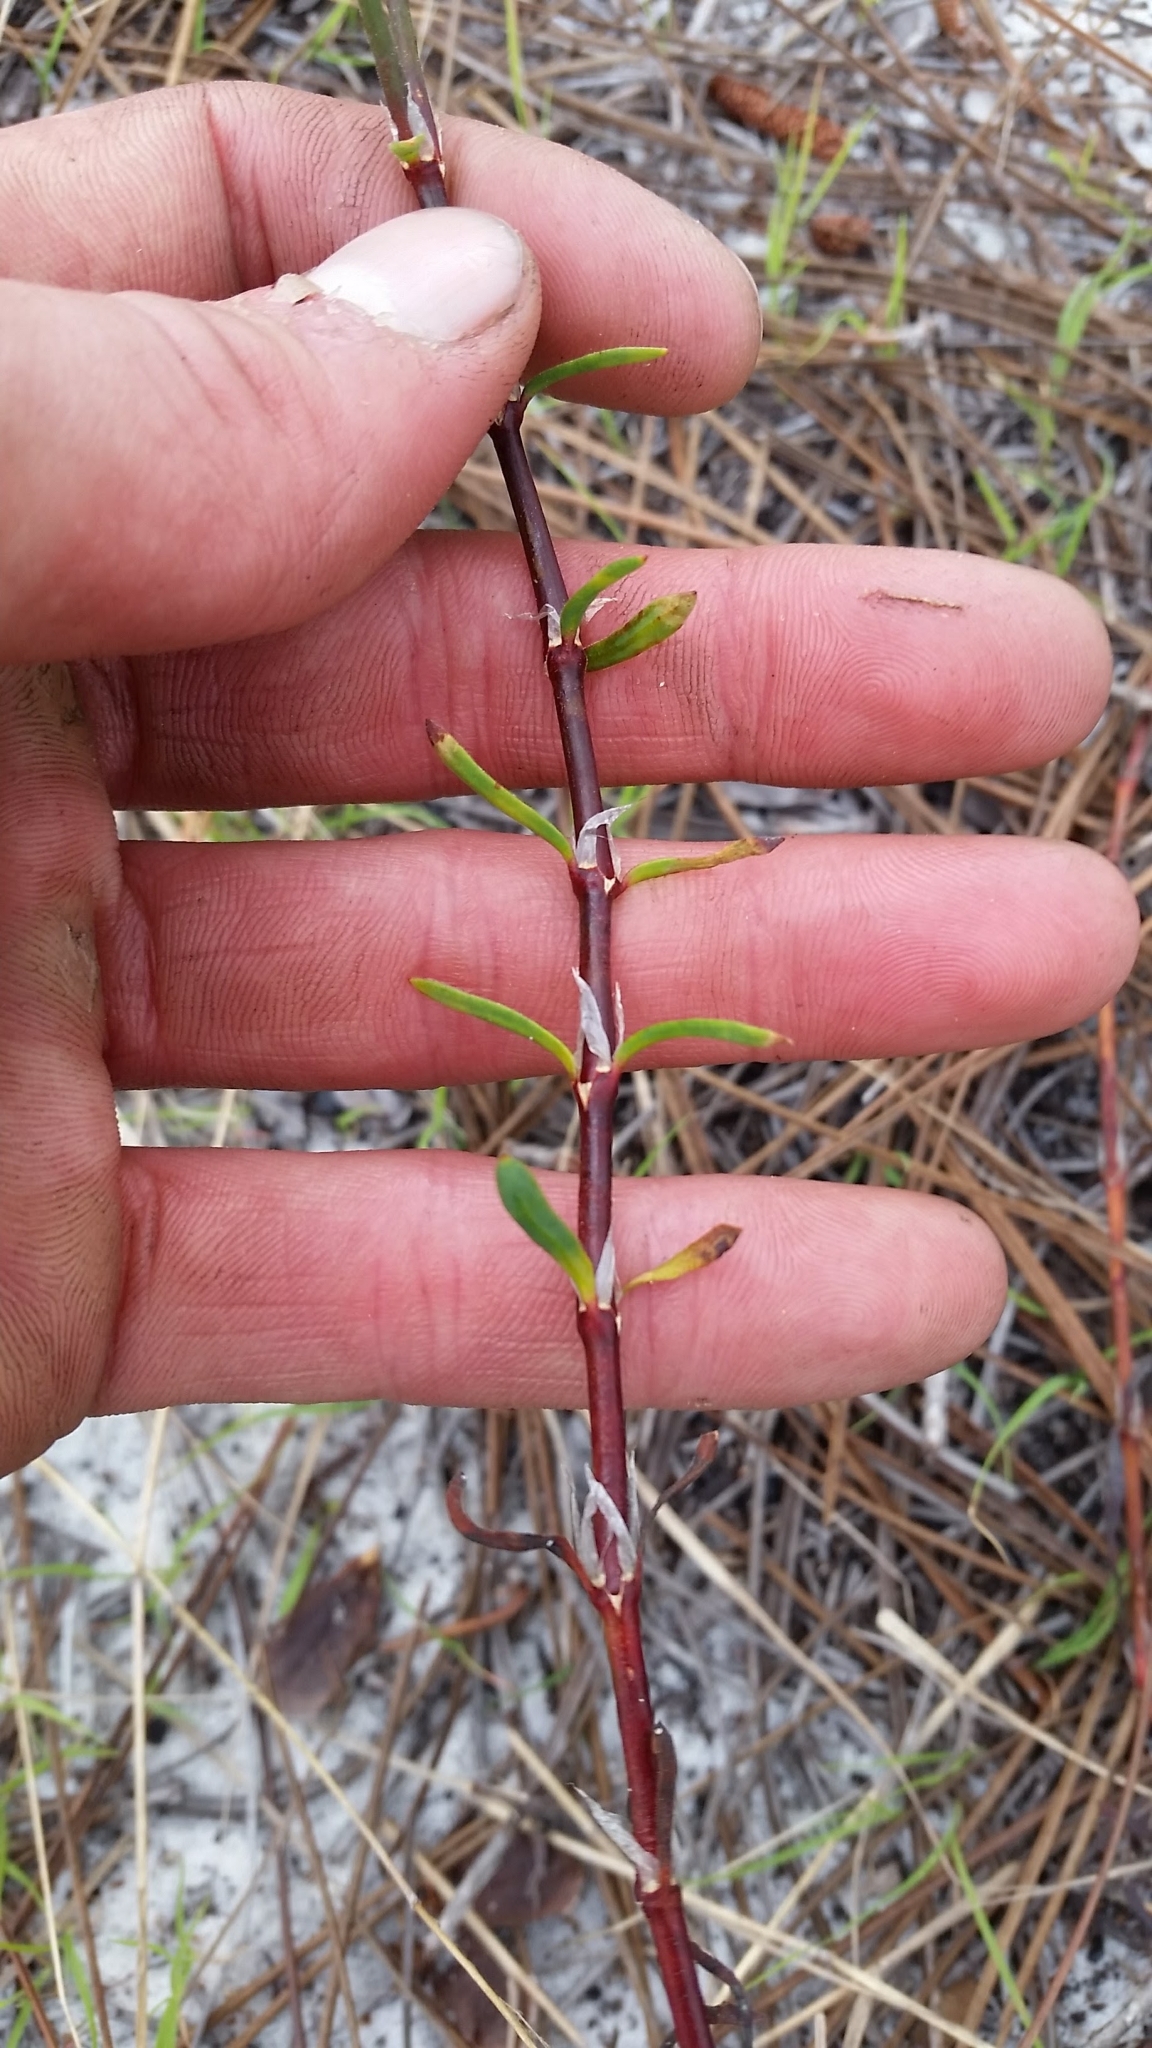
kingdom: Plantae
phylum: Tracheophyta
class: Magnoliopsida
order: Caryophyllales
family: Caryophyllaceae
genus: Paronychia
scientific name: Paronychia erecta
